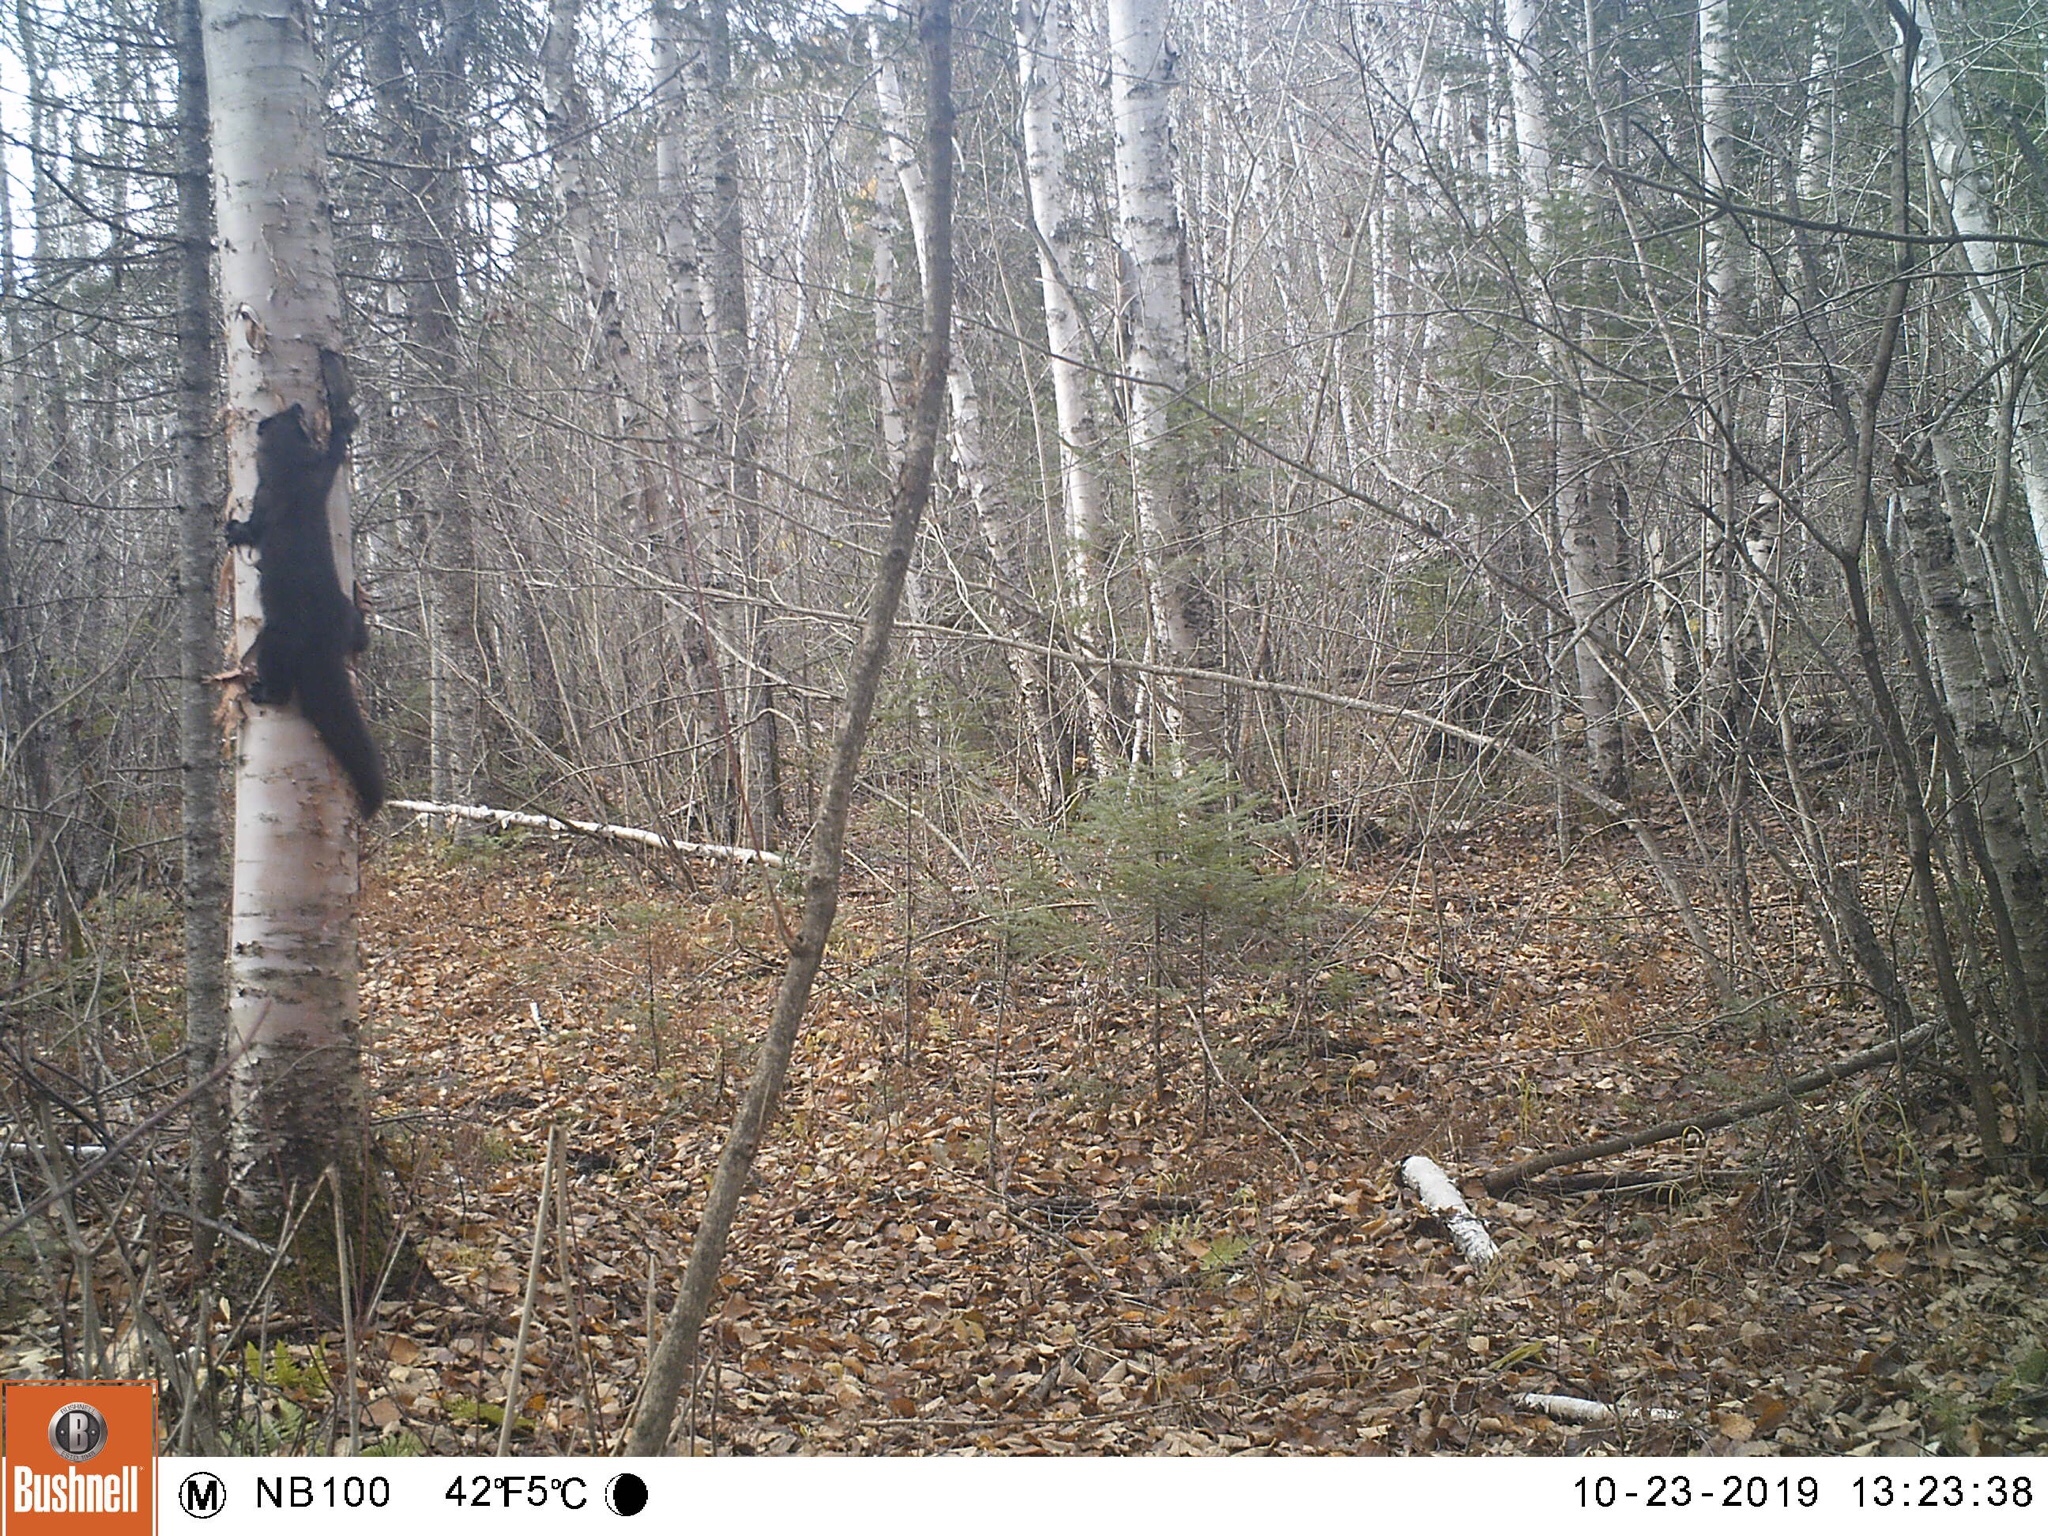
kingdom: Animalia
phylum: Chordata
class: Mammalia
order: Carnivora
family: Mustelidae
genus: Pekania
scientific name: Pekania pennanti
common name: Fisher
